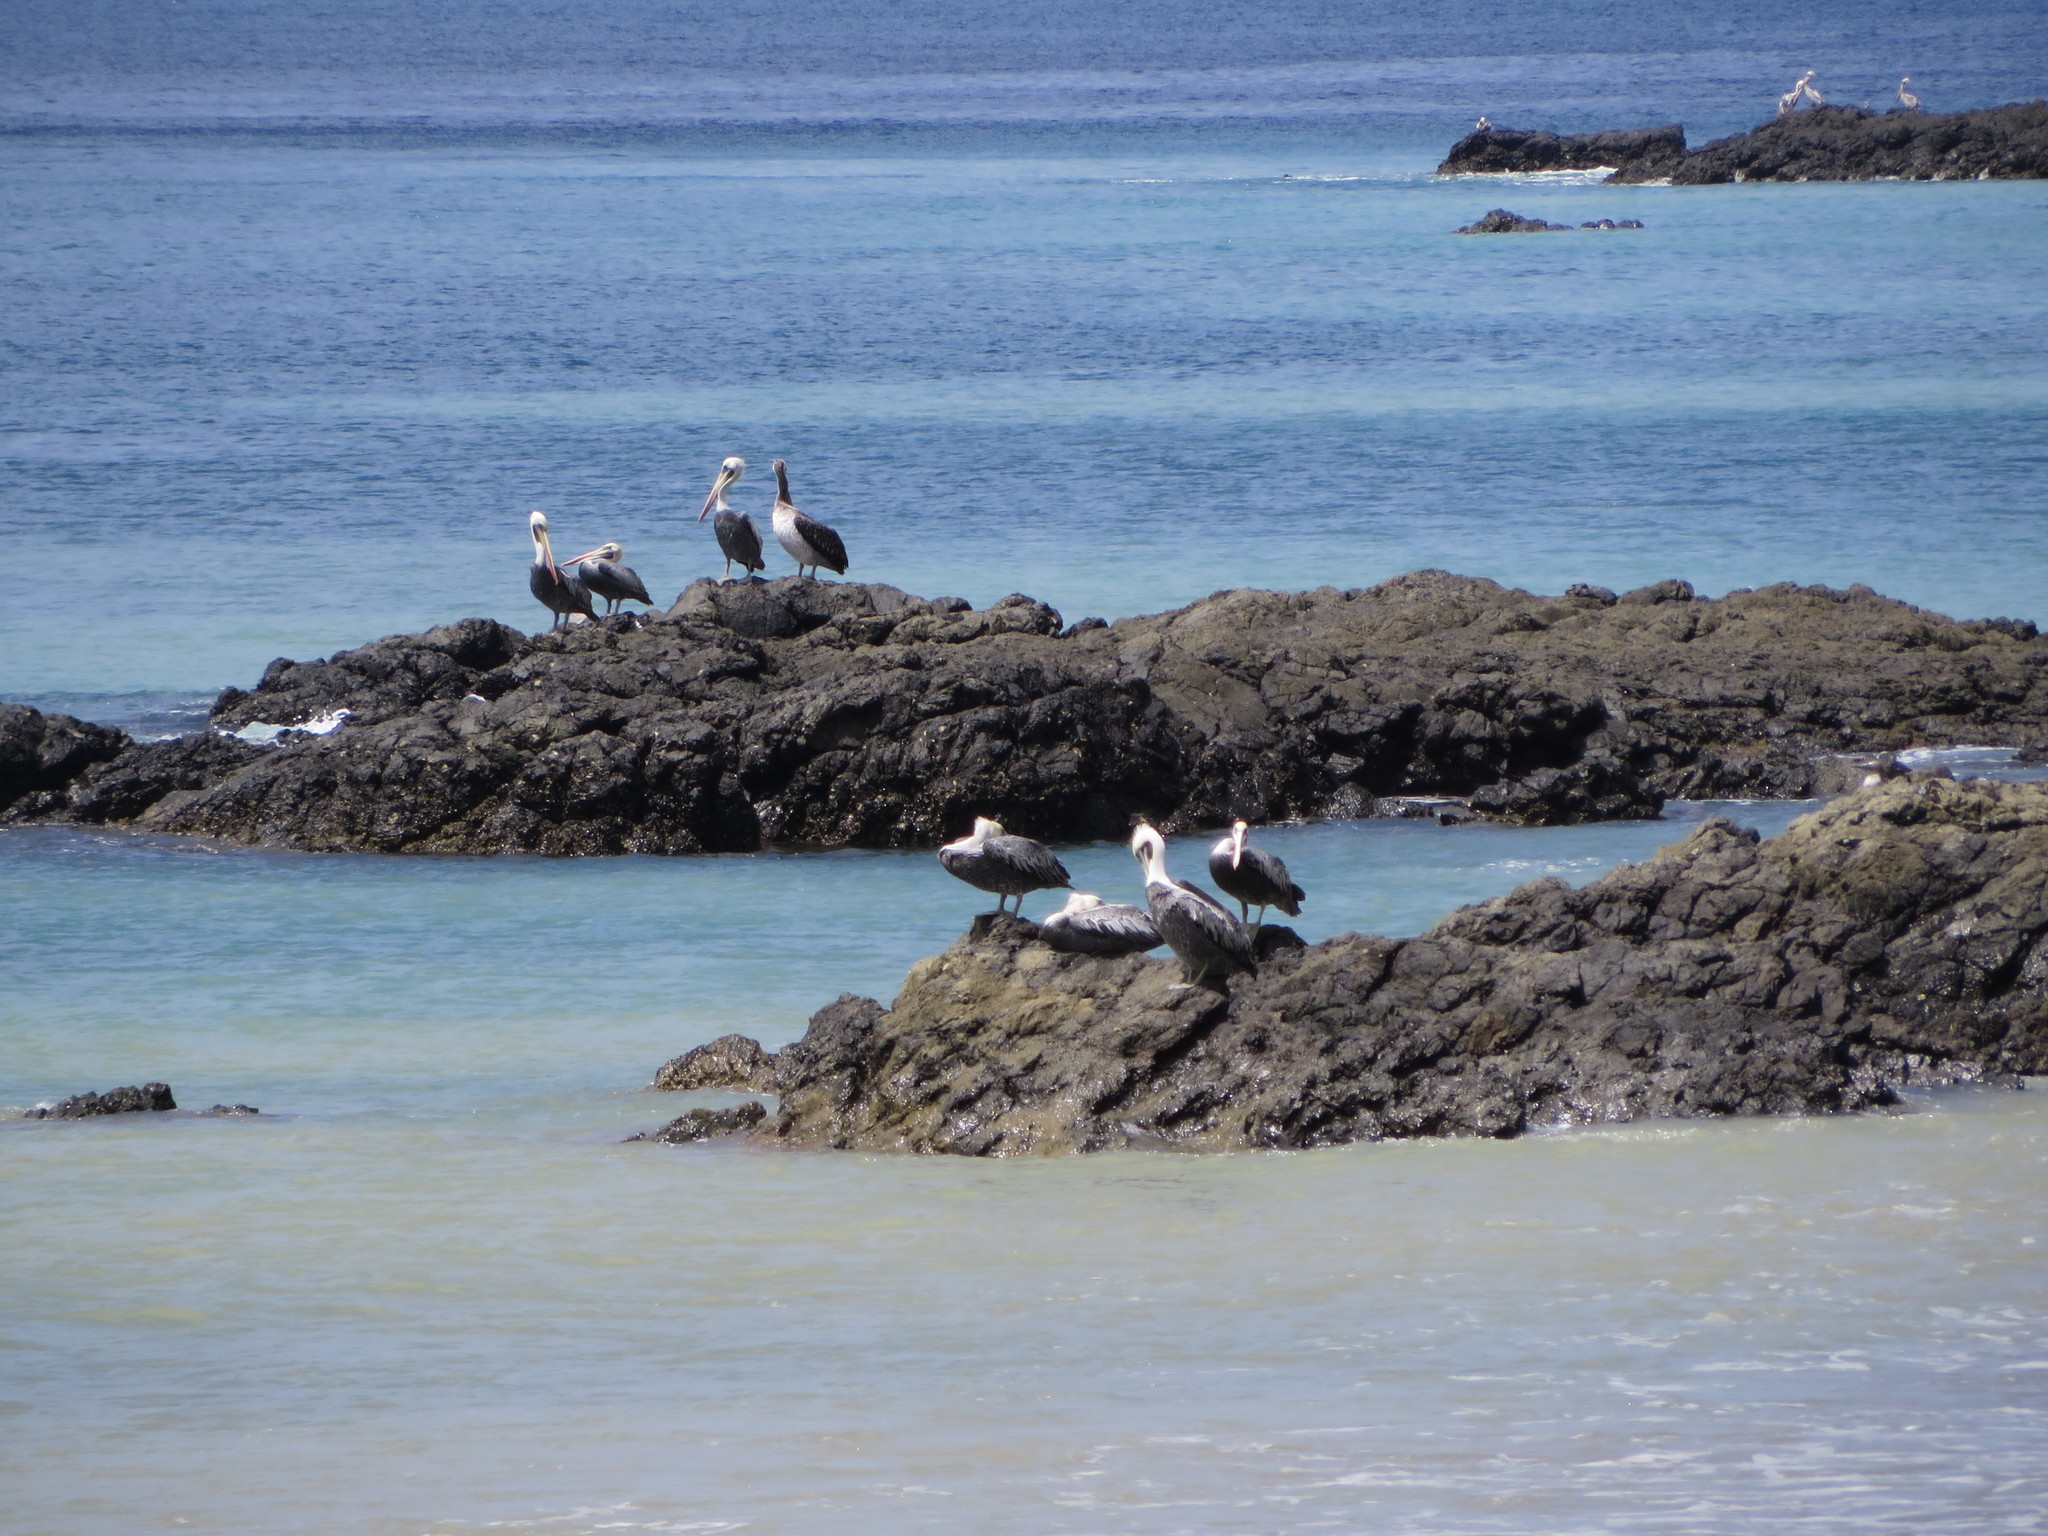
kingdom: Animalia
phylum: Chordata
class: Aves
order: Pelecaniformes
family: Pelecanidae
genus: Pelecanus
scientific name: Pelecanus occidentalis
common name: Brown pelican
